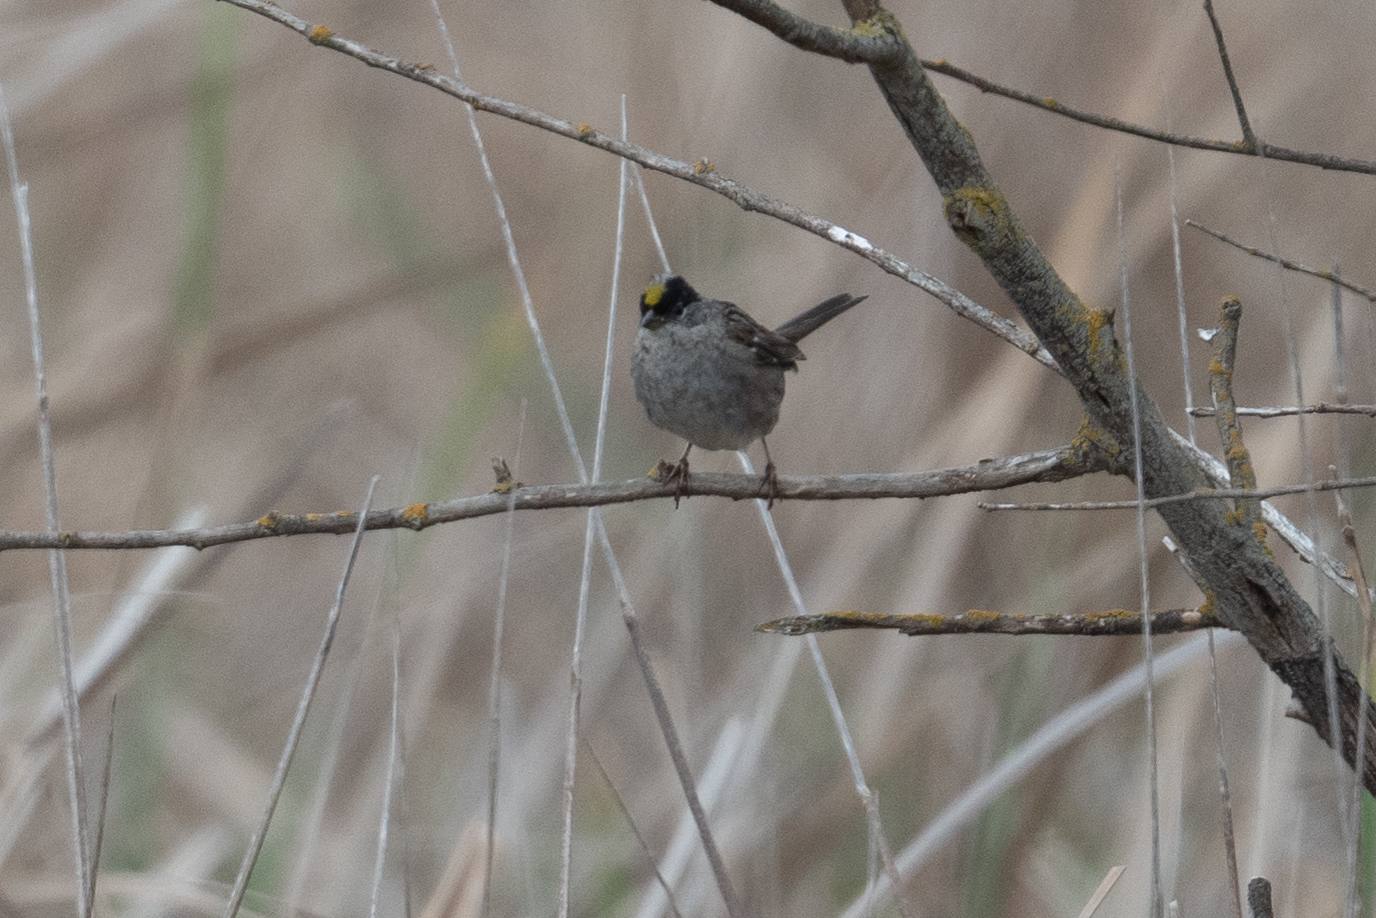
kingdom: Animalia
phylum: Chordata
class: Aves
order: Passeriformes
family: Passerellidae
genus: Zonotrichia
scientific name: Zonotrichia atricapilla
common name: Golden-crowned sparrow
